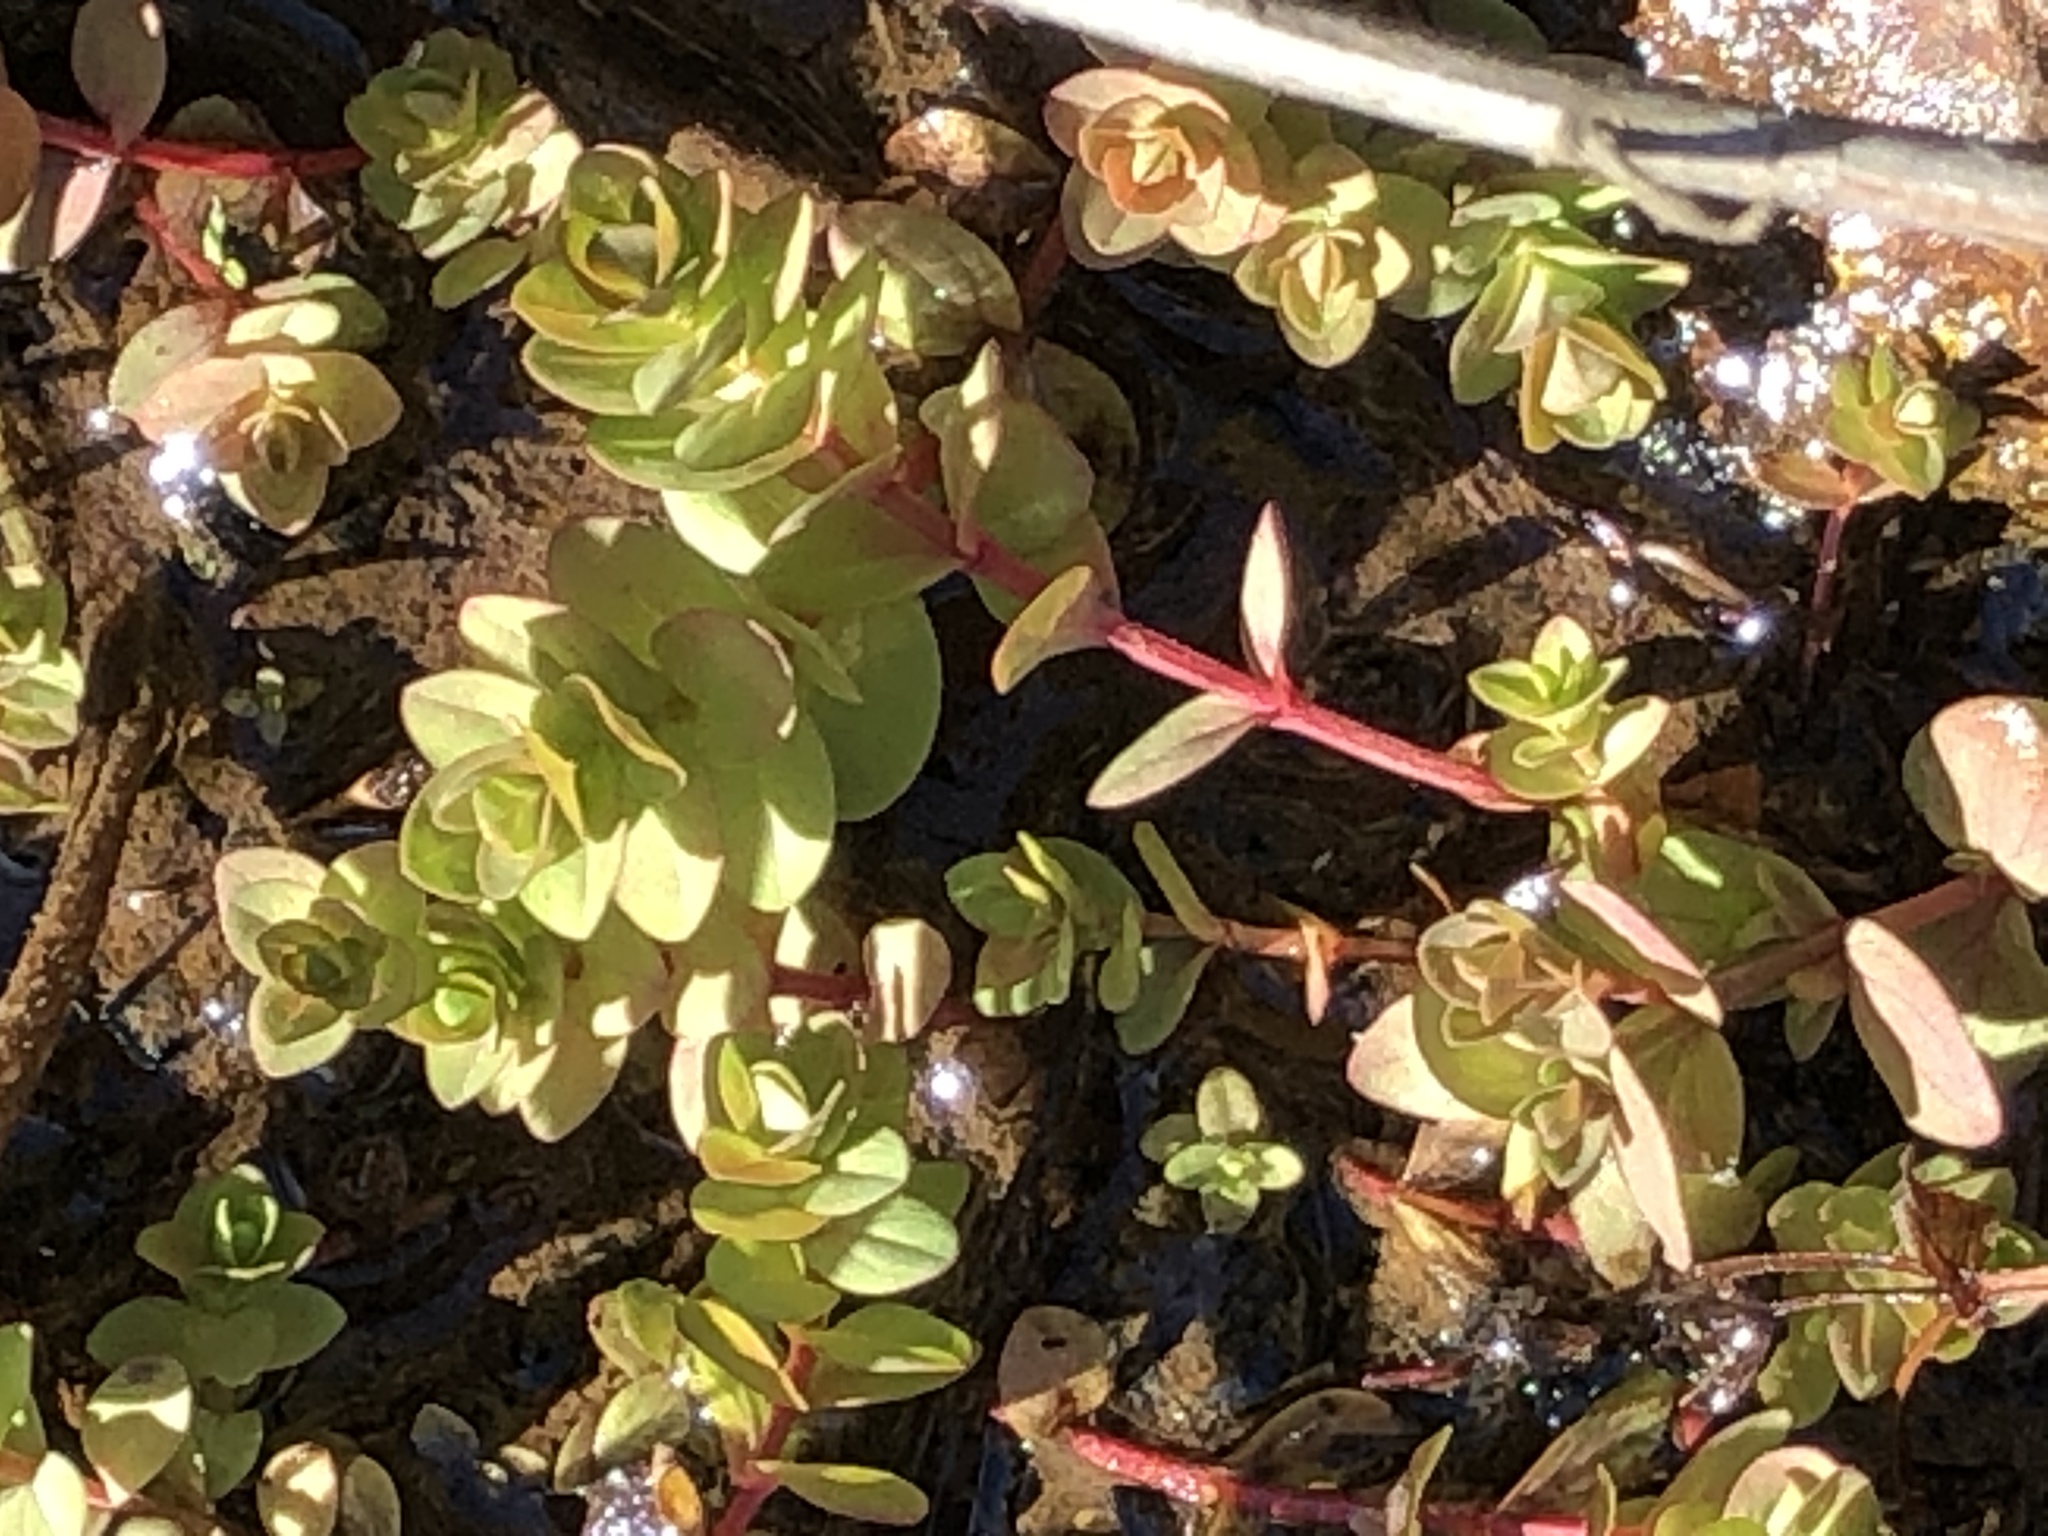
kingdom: Plantae
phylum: Tracheophyta
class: Magnoliopsida
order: Malpighiales
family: Hypericaceae
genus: Hypericum
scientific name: Hypericum anagalloides
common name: Bog st. john's-wort
